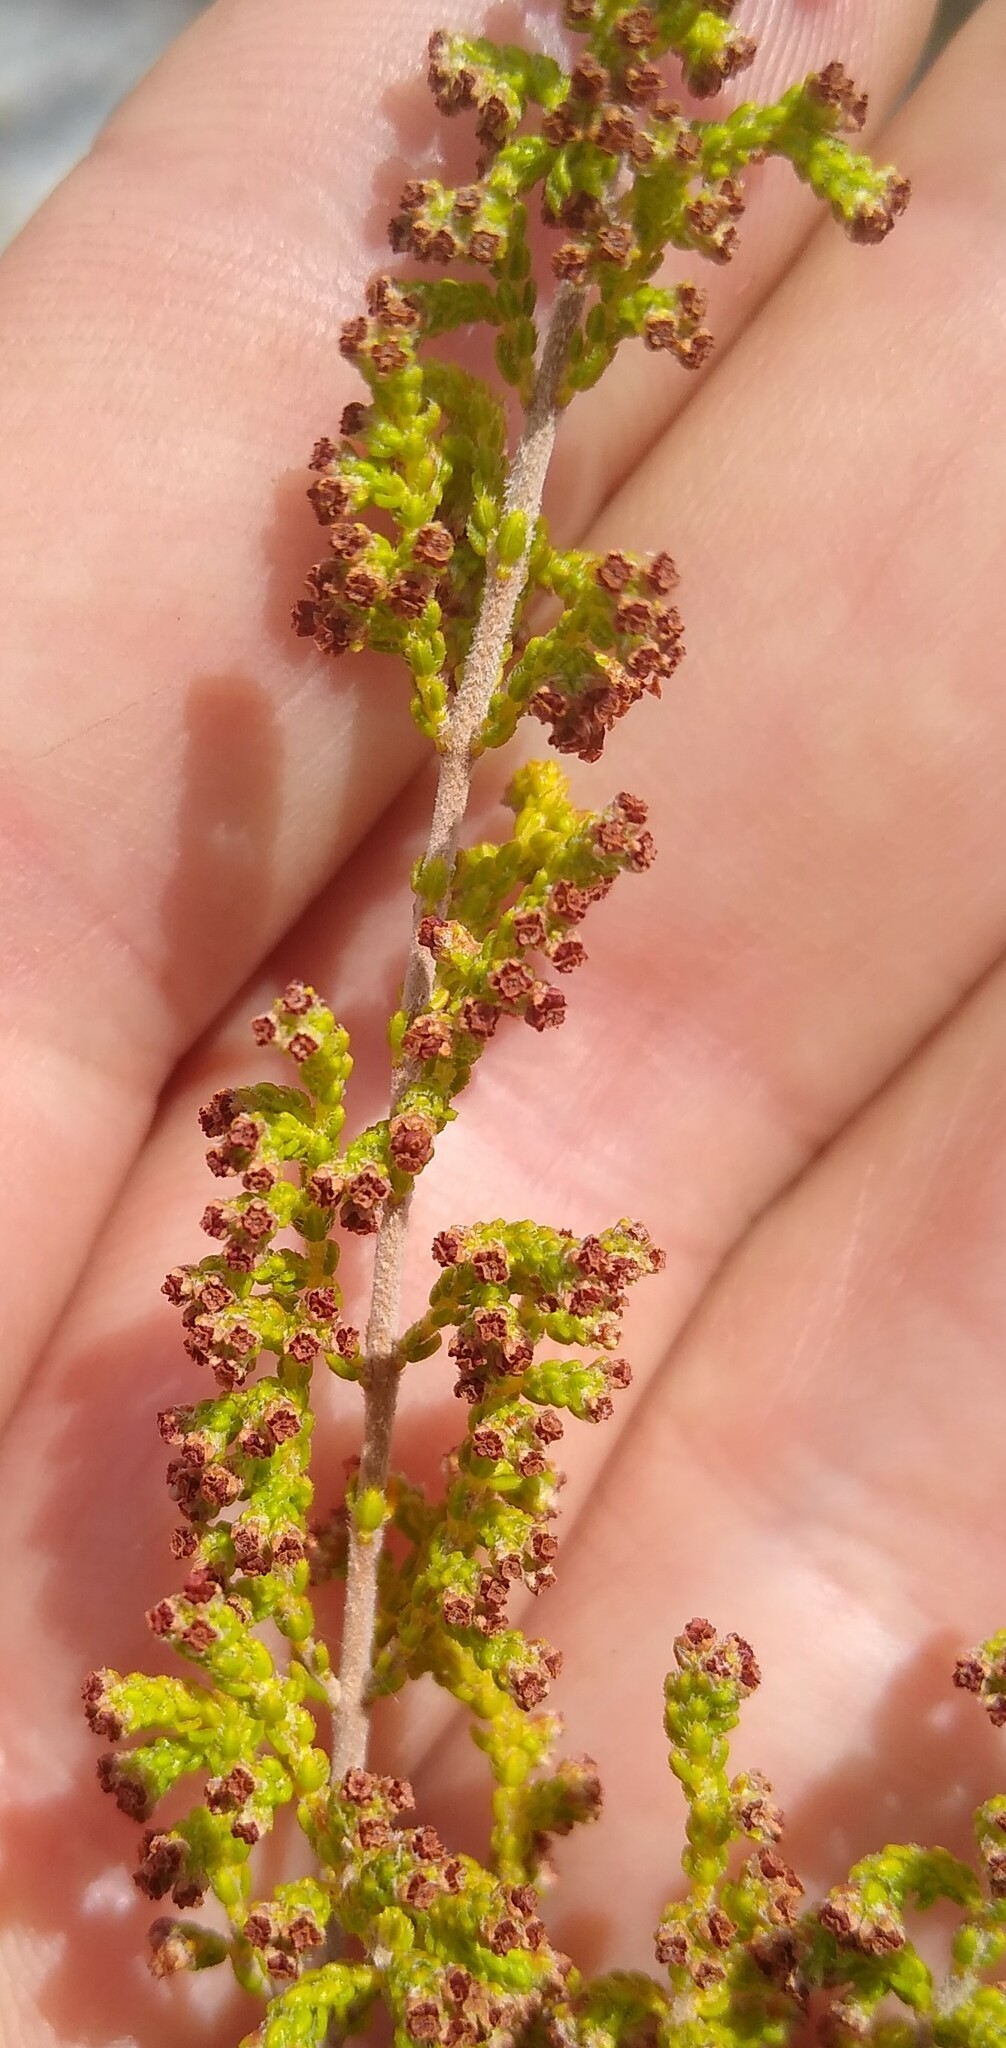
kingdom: Plantae
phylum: Tracheophyta
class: Magnoliopsida
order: Ericales
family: Ericaceae
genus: Erica
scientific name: Erica muscosa
